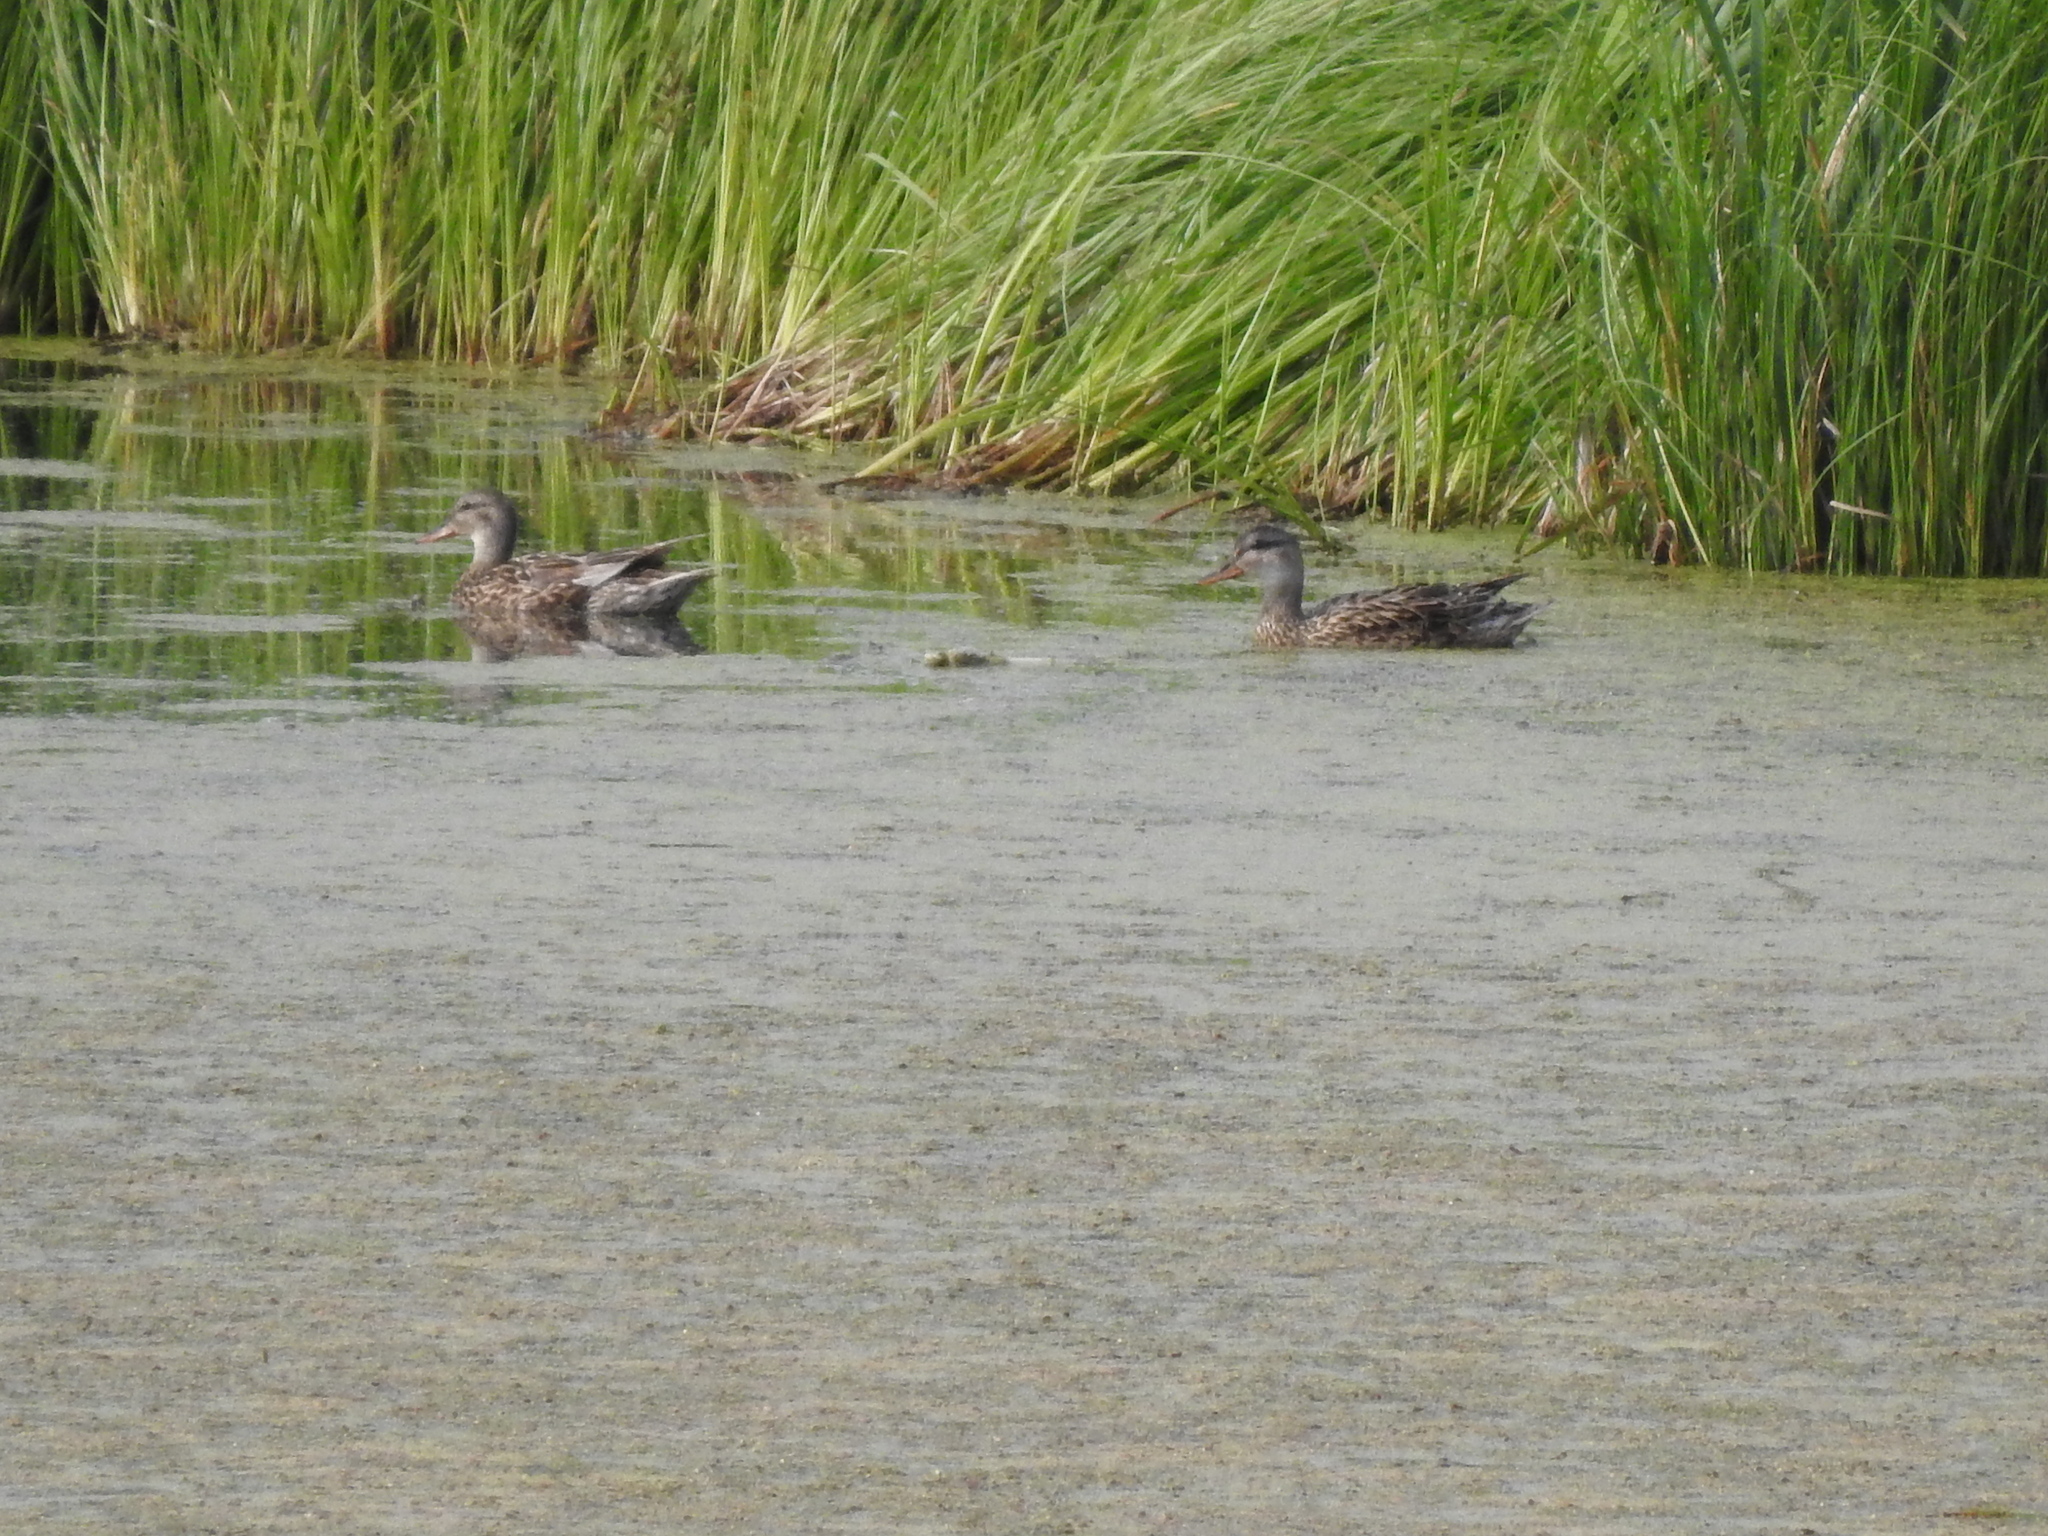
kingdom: Animalia
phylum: Chordata
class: Aves
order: Anseriformes
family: Anatidae
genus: Mareca
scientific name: Mareca strepera
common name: Gadwall
